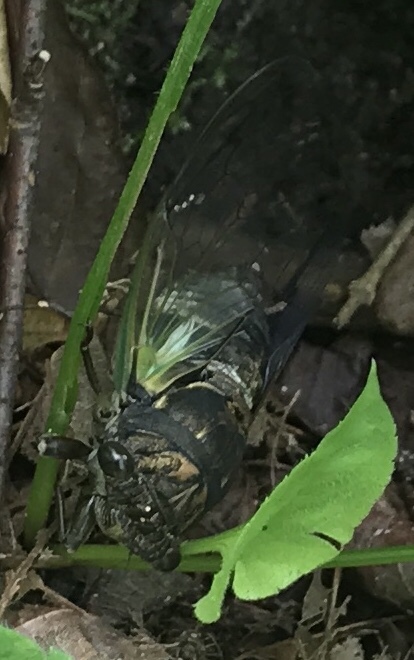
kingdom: Animalia
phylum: Arthropoda
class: Insecta
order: Hemiptera
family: Cicadidae
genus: Neotibicen
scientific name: Neotibicen lyricen
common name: Lyric cicada
